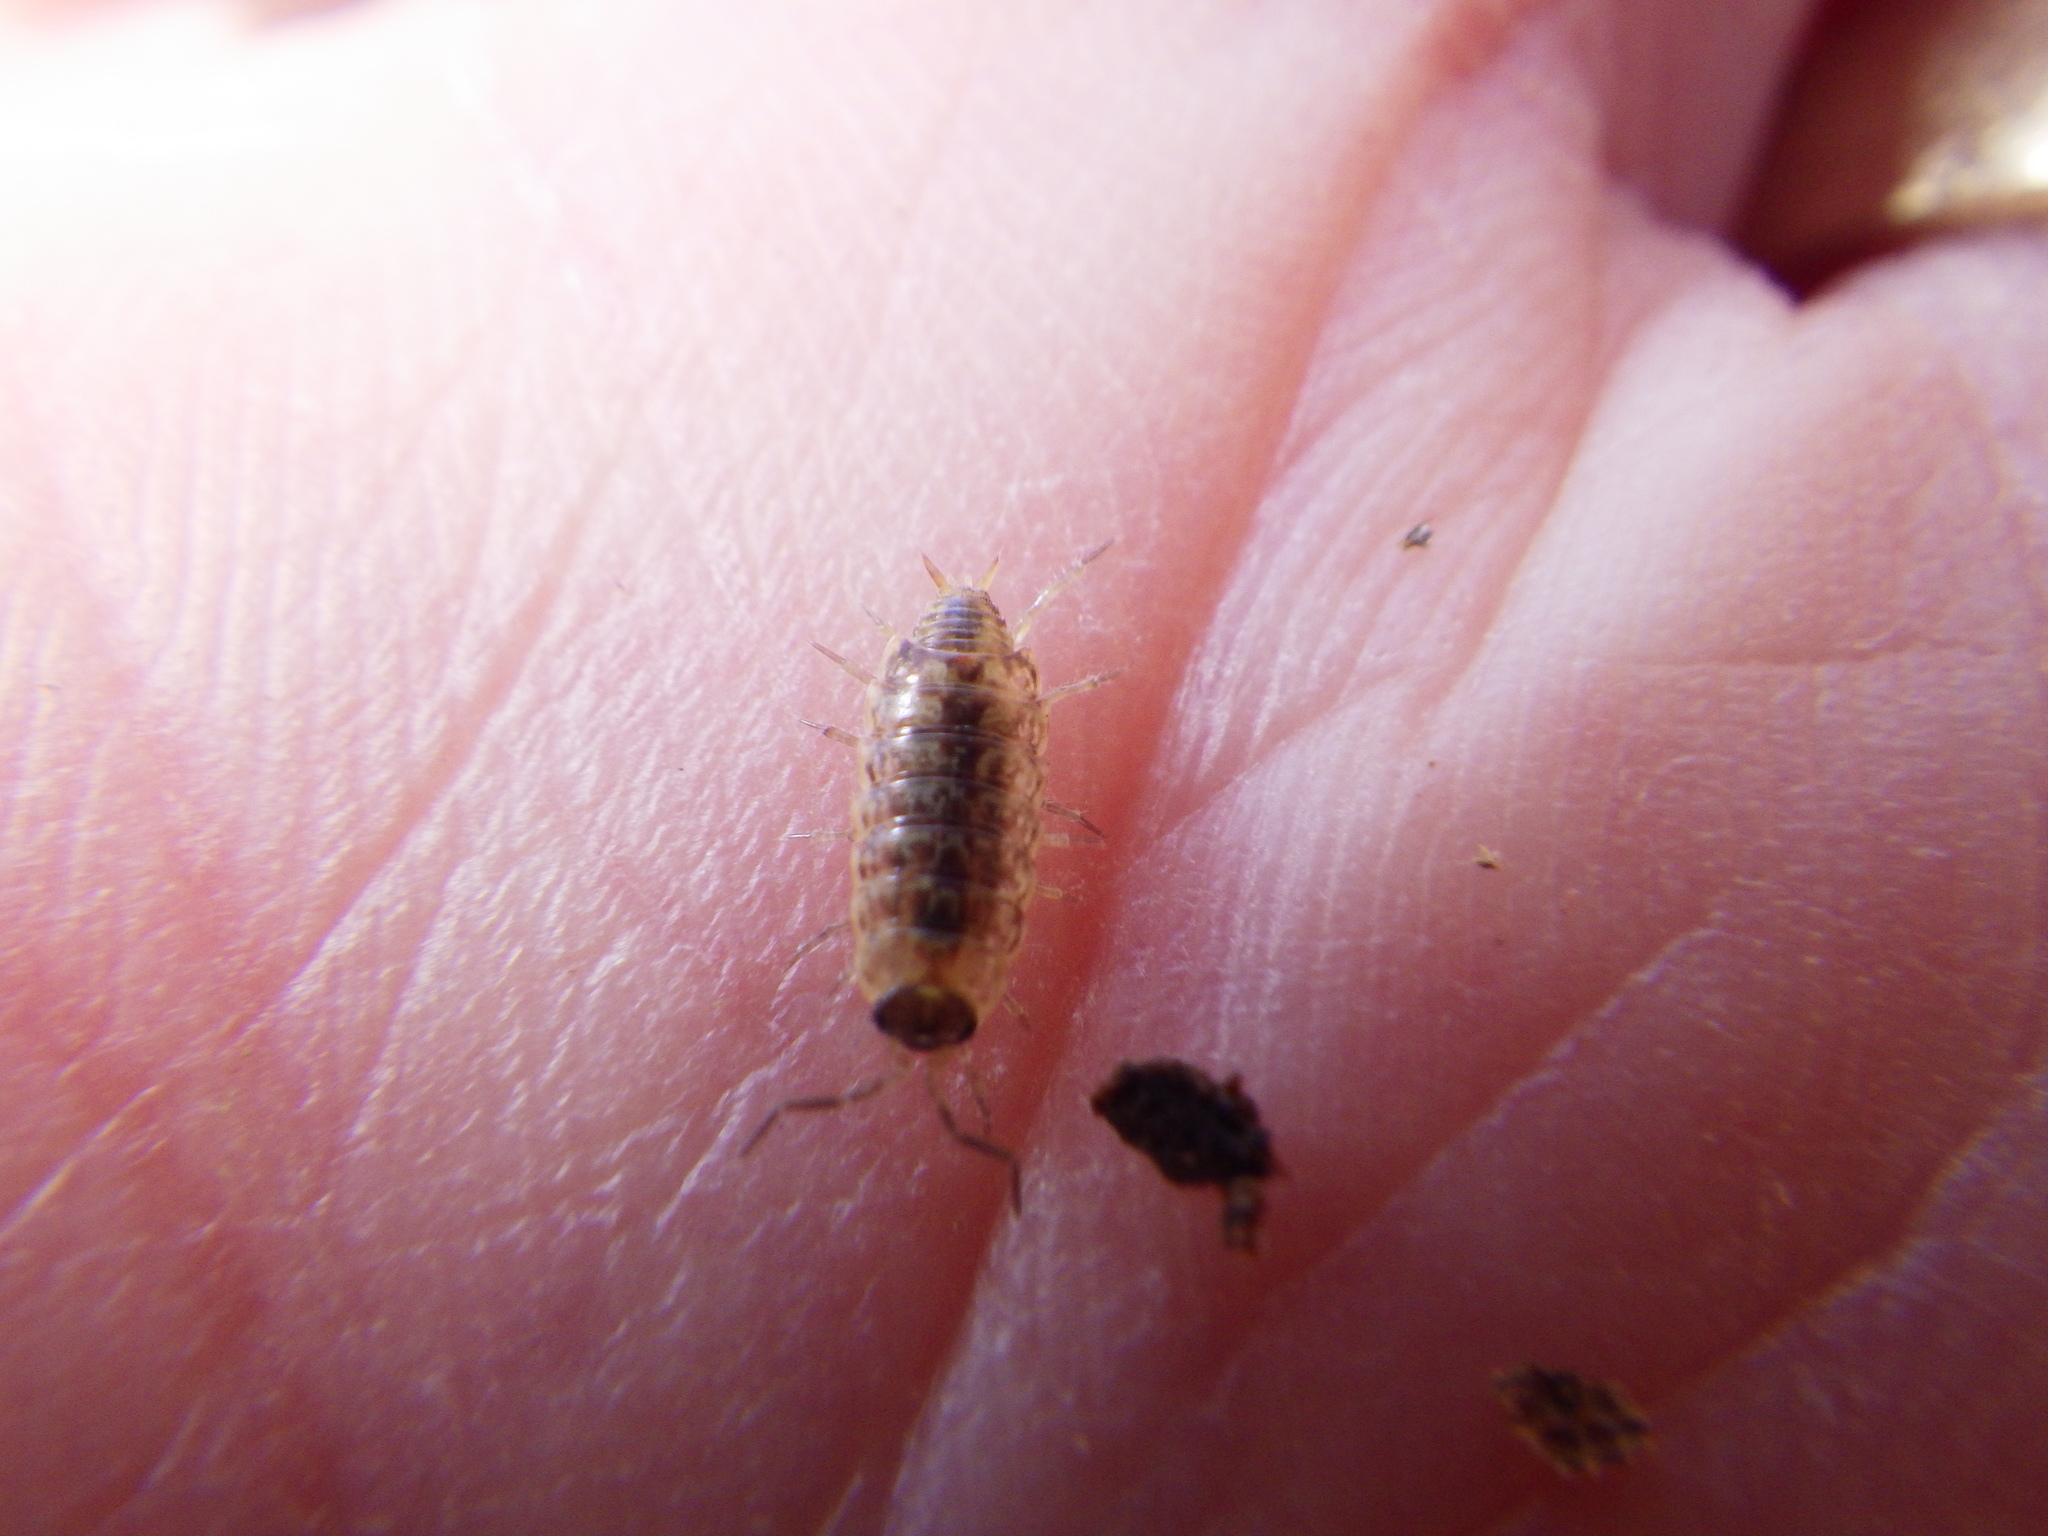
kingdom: Animalia
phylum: Arthropoda
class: Malacostraca
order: Isopoda
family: Philosciidae
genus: Philoscia
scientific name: Philoscia muscorum
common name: Common striped woodlouse
